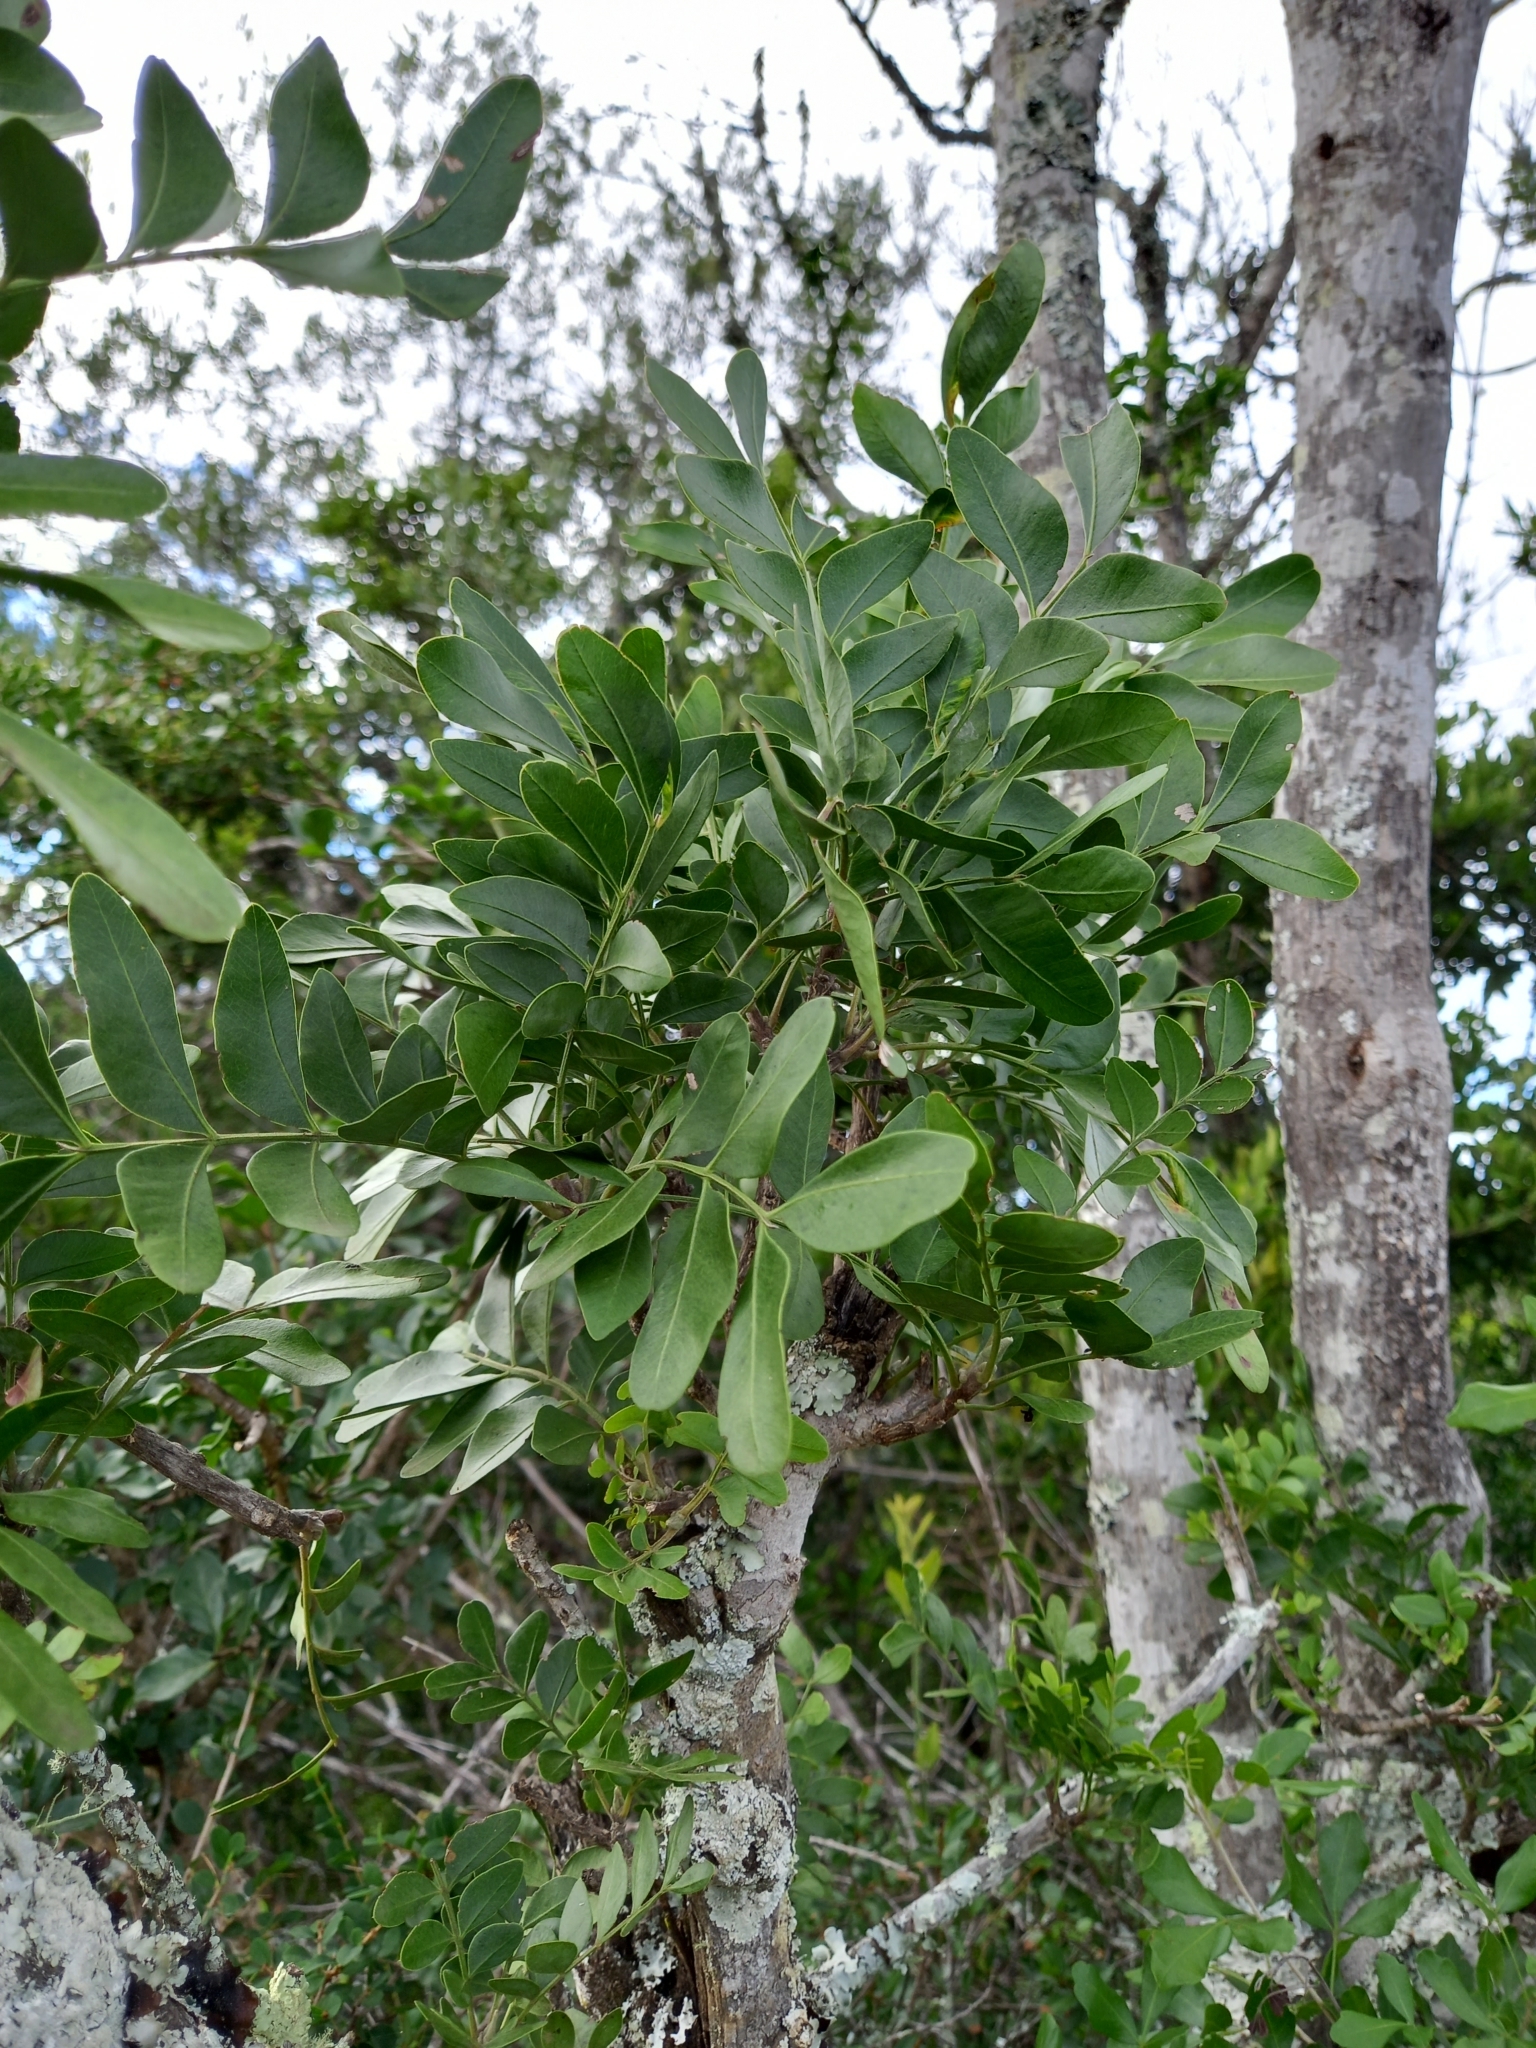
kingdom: Plantae
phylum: Tracheophyta
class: Magnoliopsida
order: Sapindales
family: Rutaceae
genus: Ptaeroxylon
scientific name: Ptaeroxylon obliquum
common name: Sneezewood
